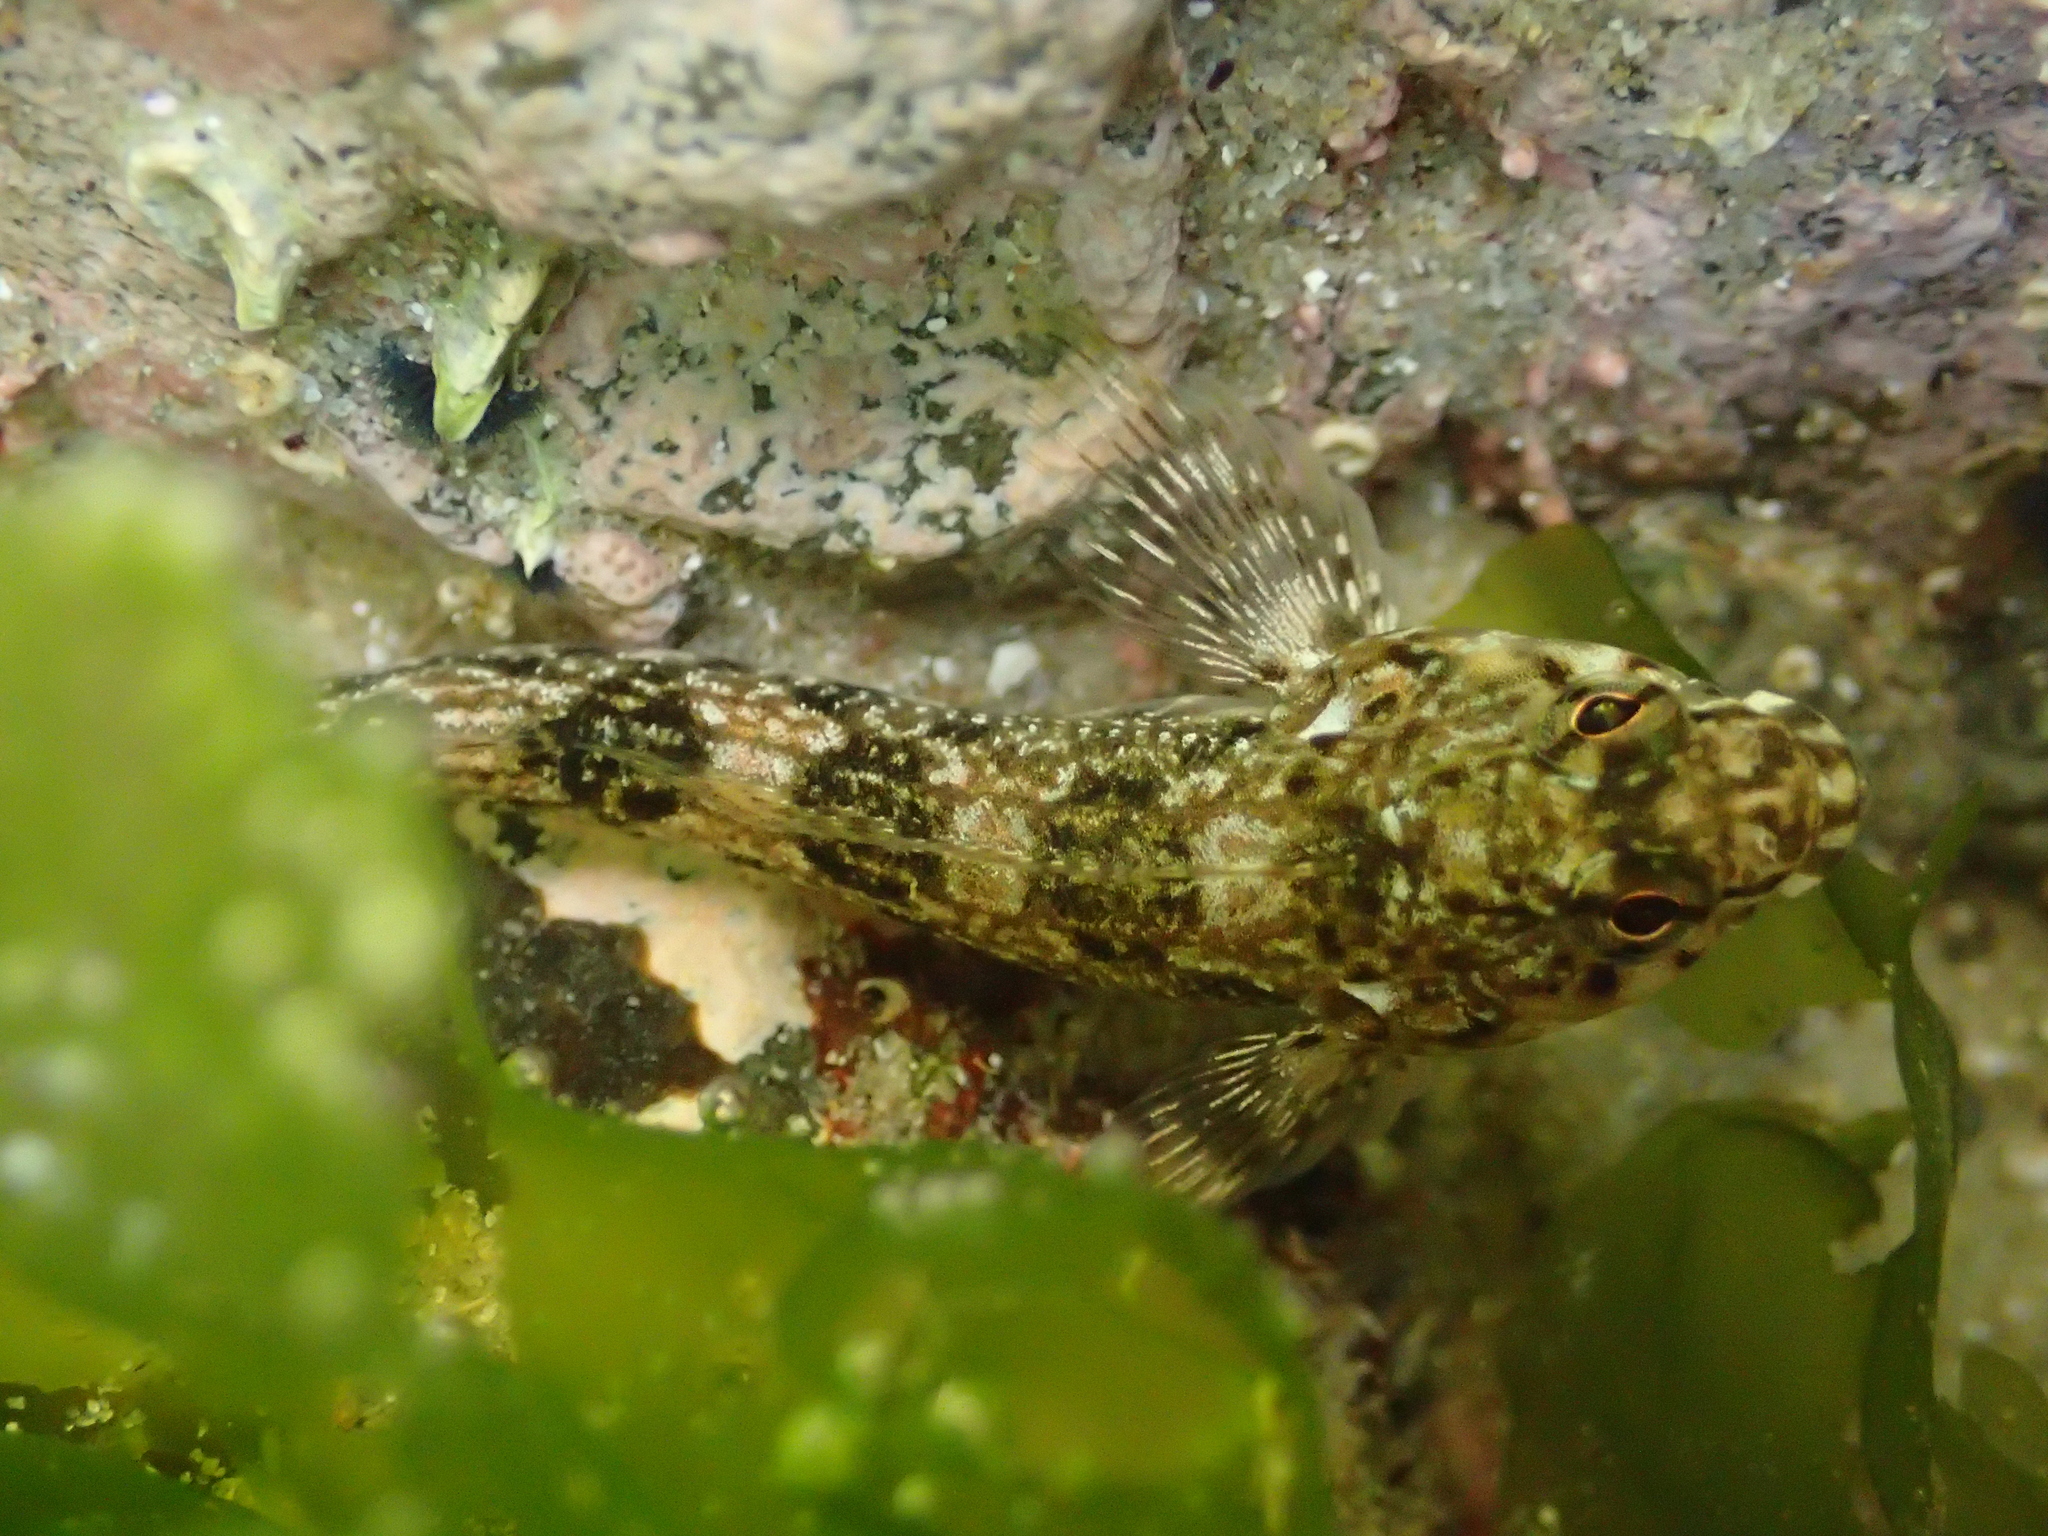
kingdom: Animalia
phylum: Chordata
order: Perciformes
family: Tripterygiidae
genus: Bellapiscis
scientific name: Bellapiscis medius
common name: Twister
